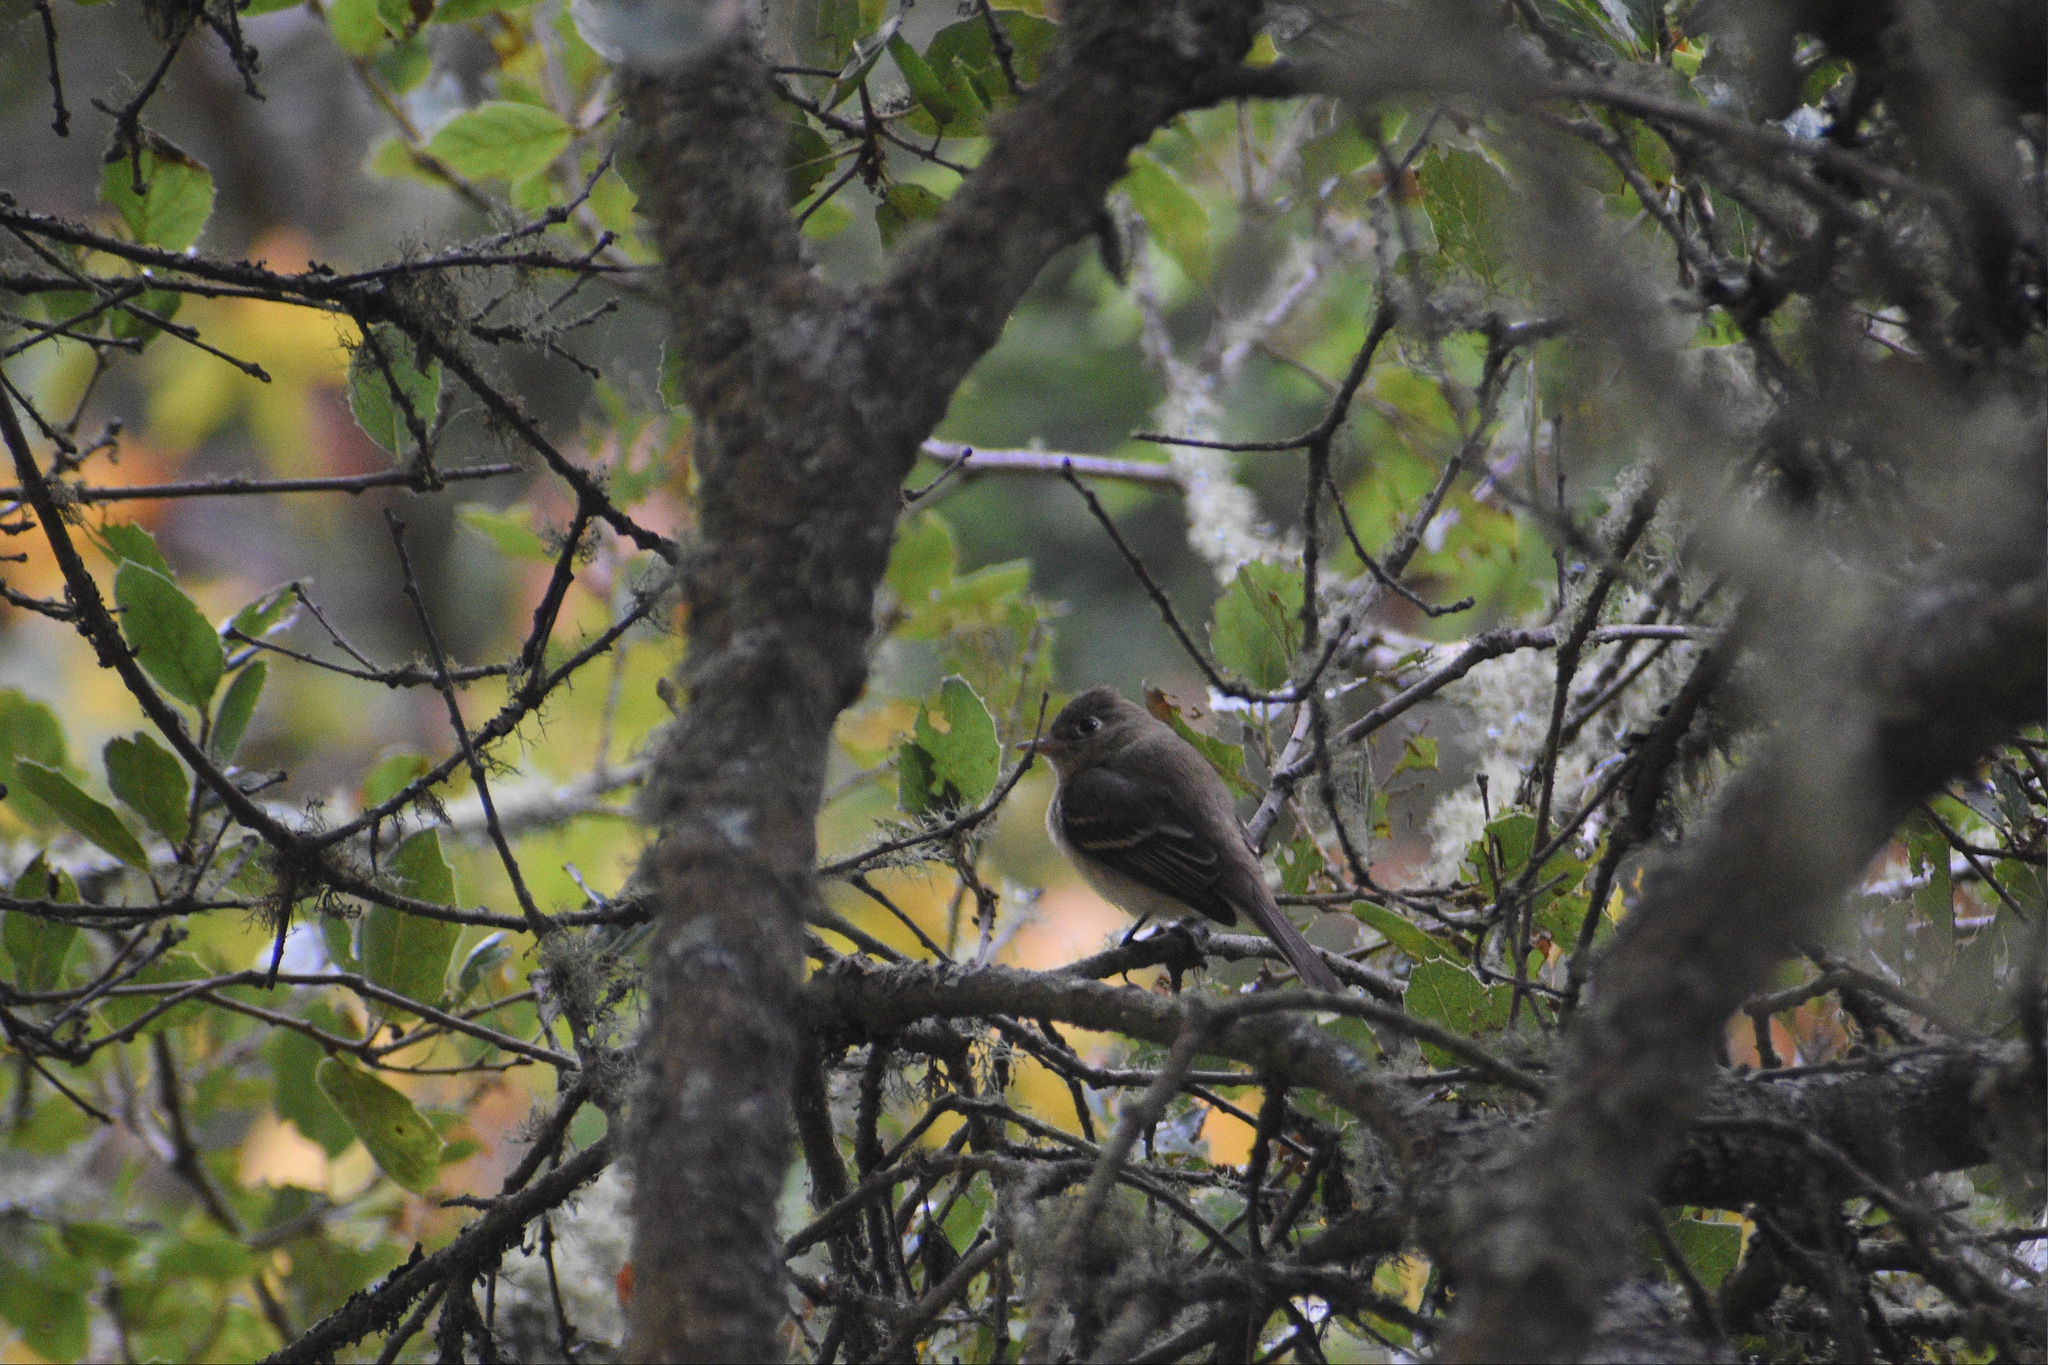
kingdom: Animalia
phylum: Chordata
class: Aves
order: Passeriformes
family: Tyrannidae
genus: Empidonax
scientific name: Empidonax difficilis
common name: Pacific-slope flycatcher
